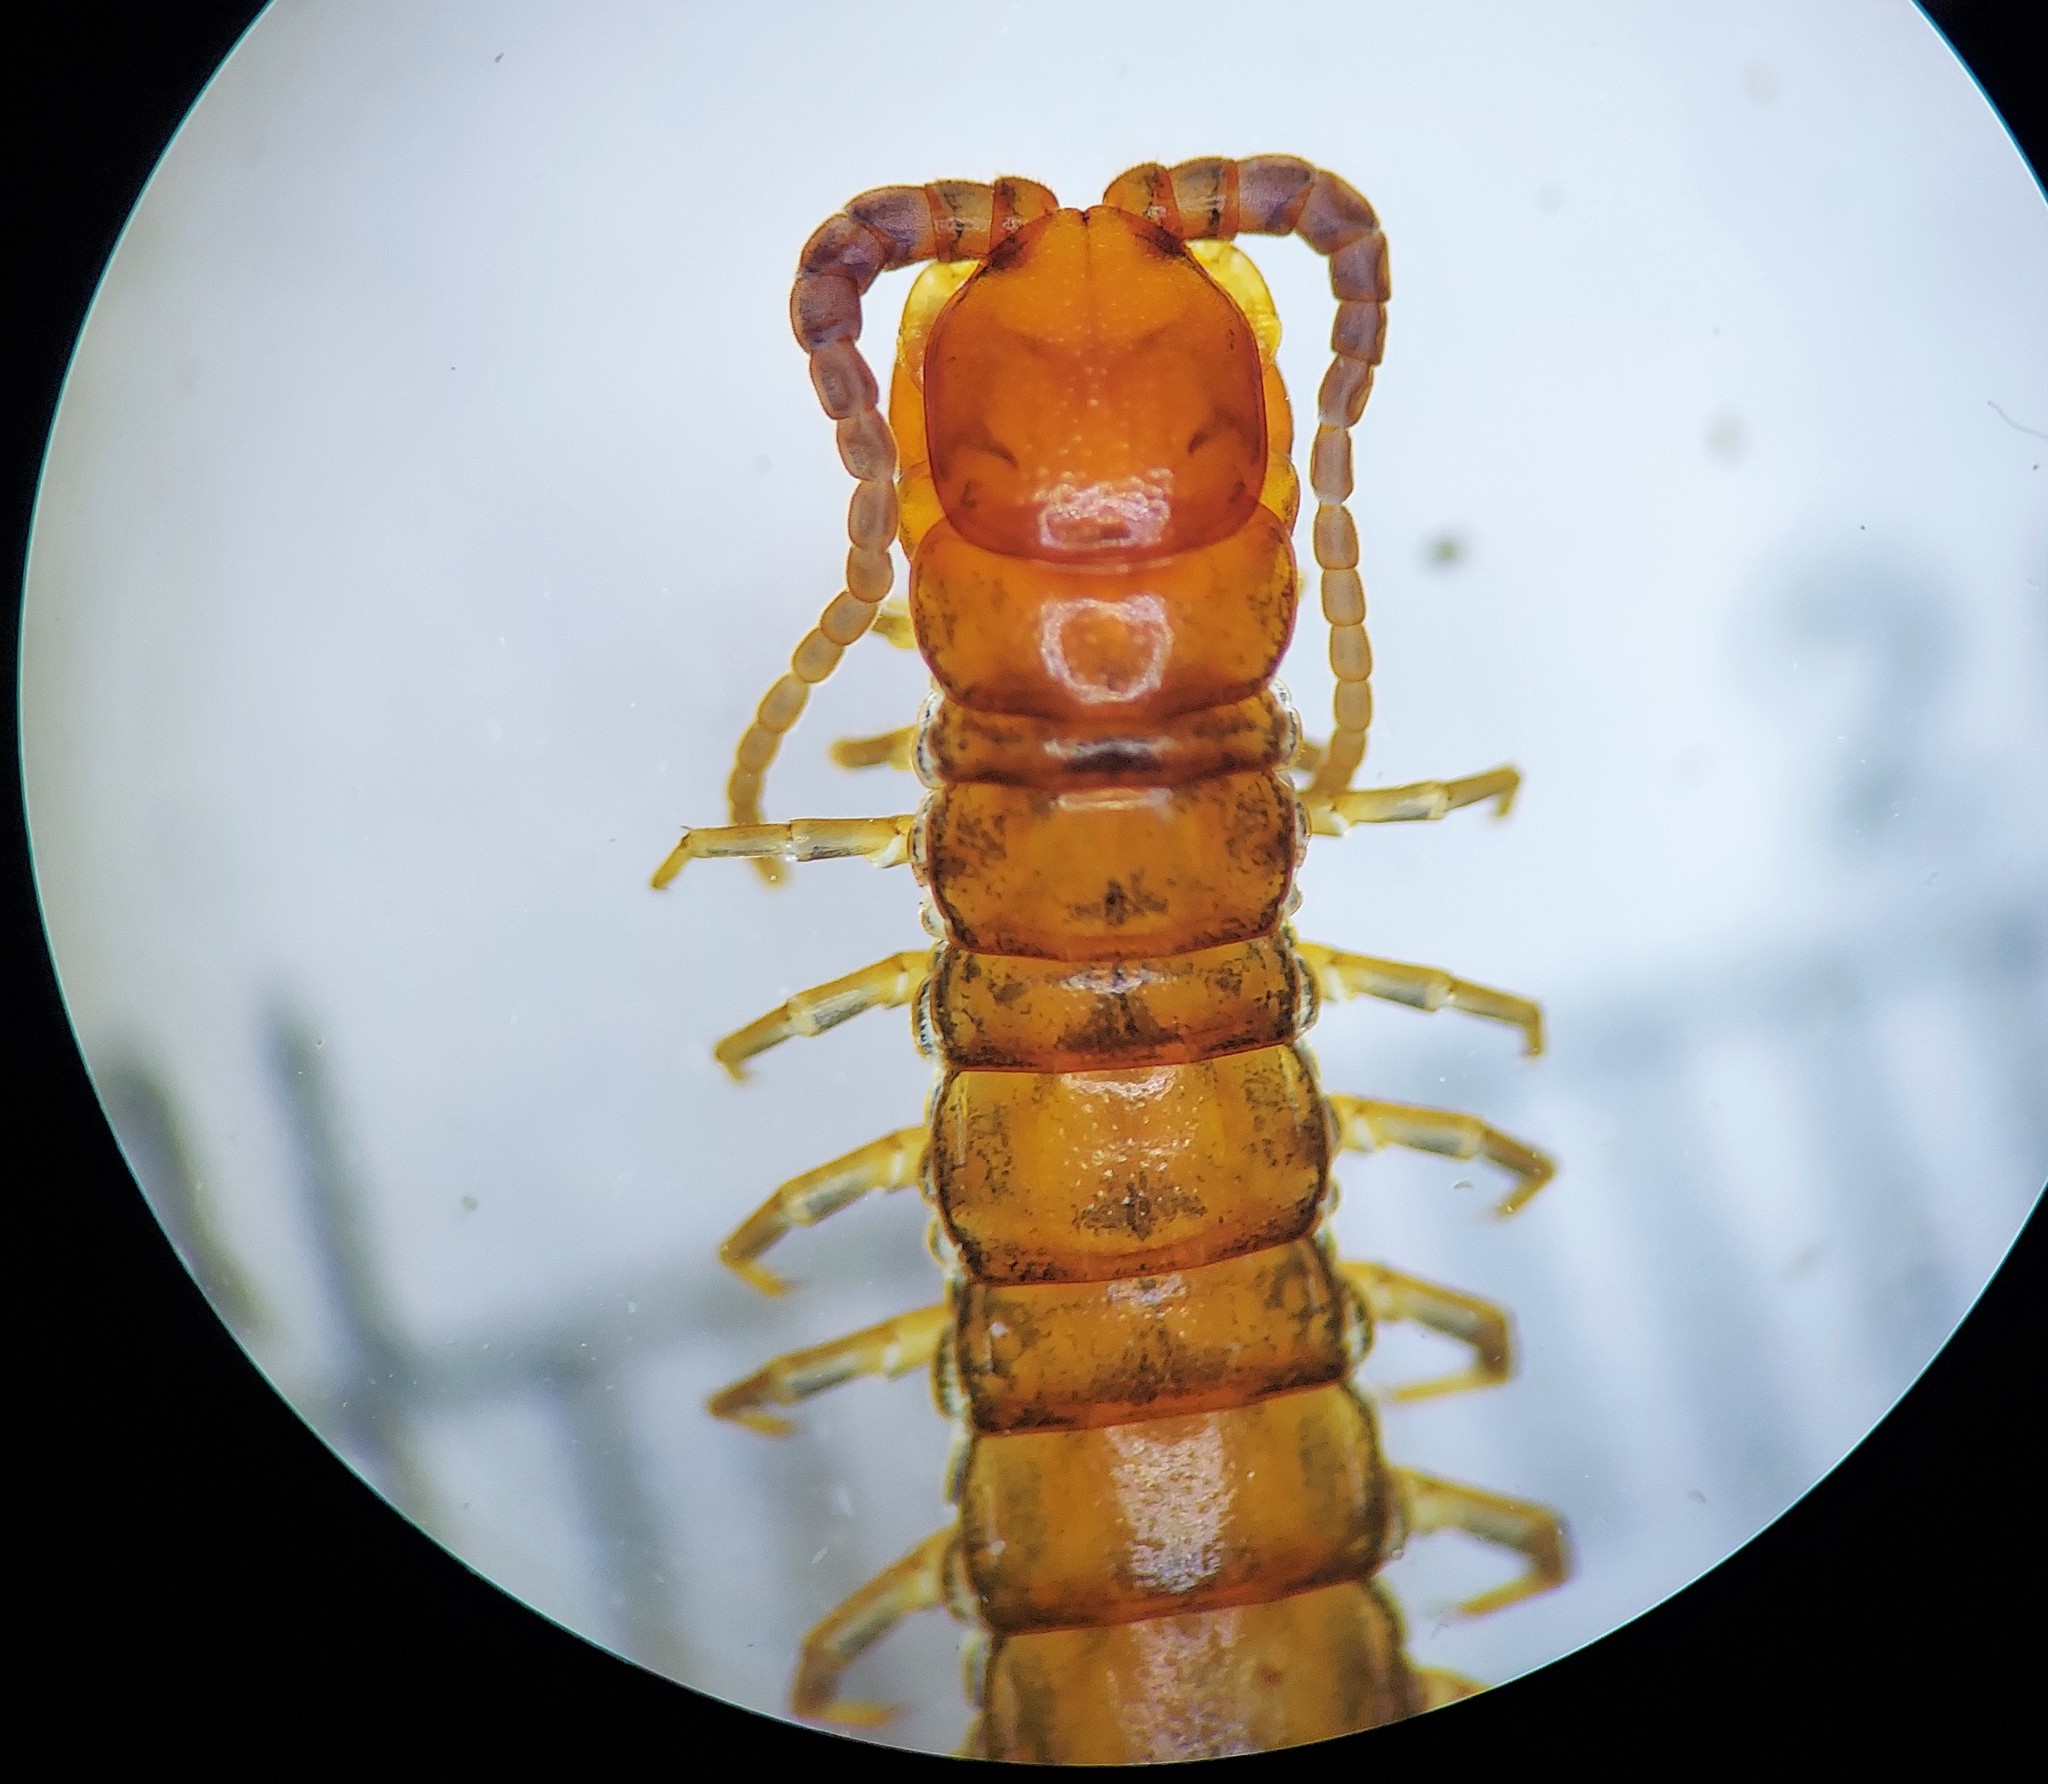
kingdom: Animalia
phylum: Arthropoda
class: Chilopoda
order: Scolopendromorpha
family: Scolopocryptopidae
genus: Scolopocryptops
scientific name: Scolopocryptops nigridius
